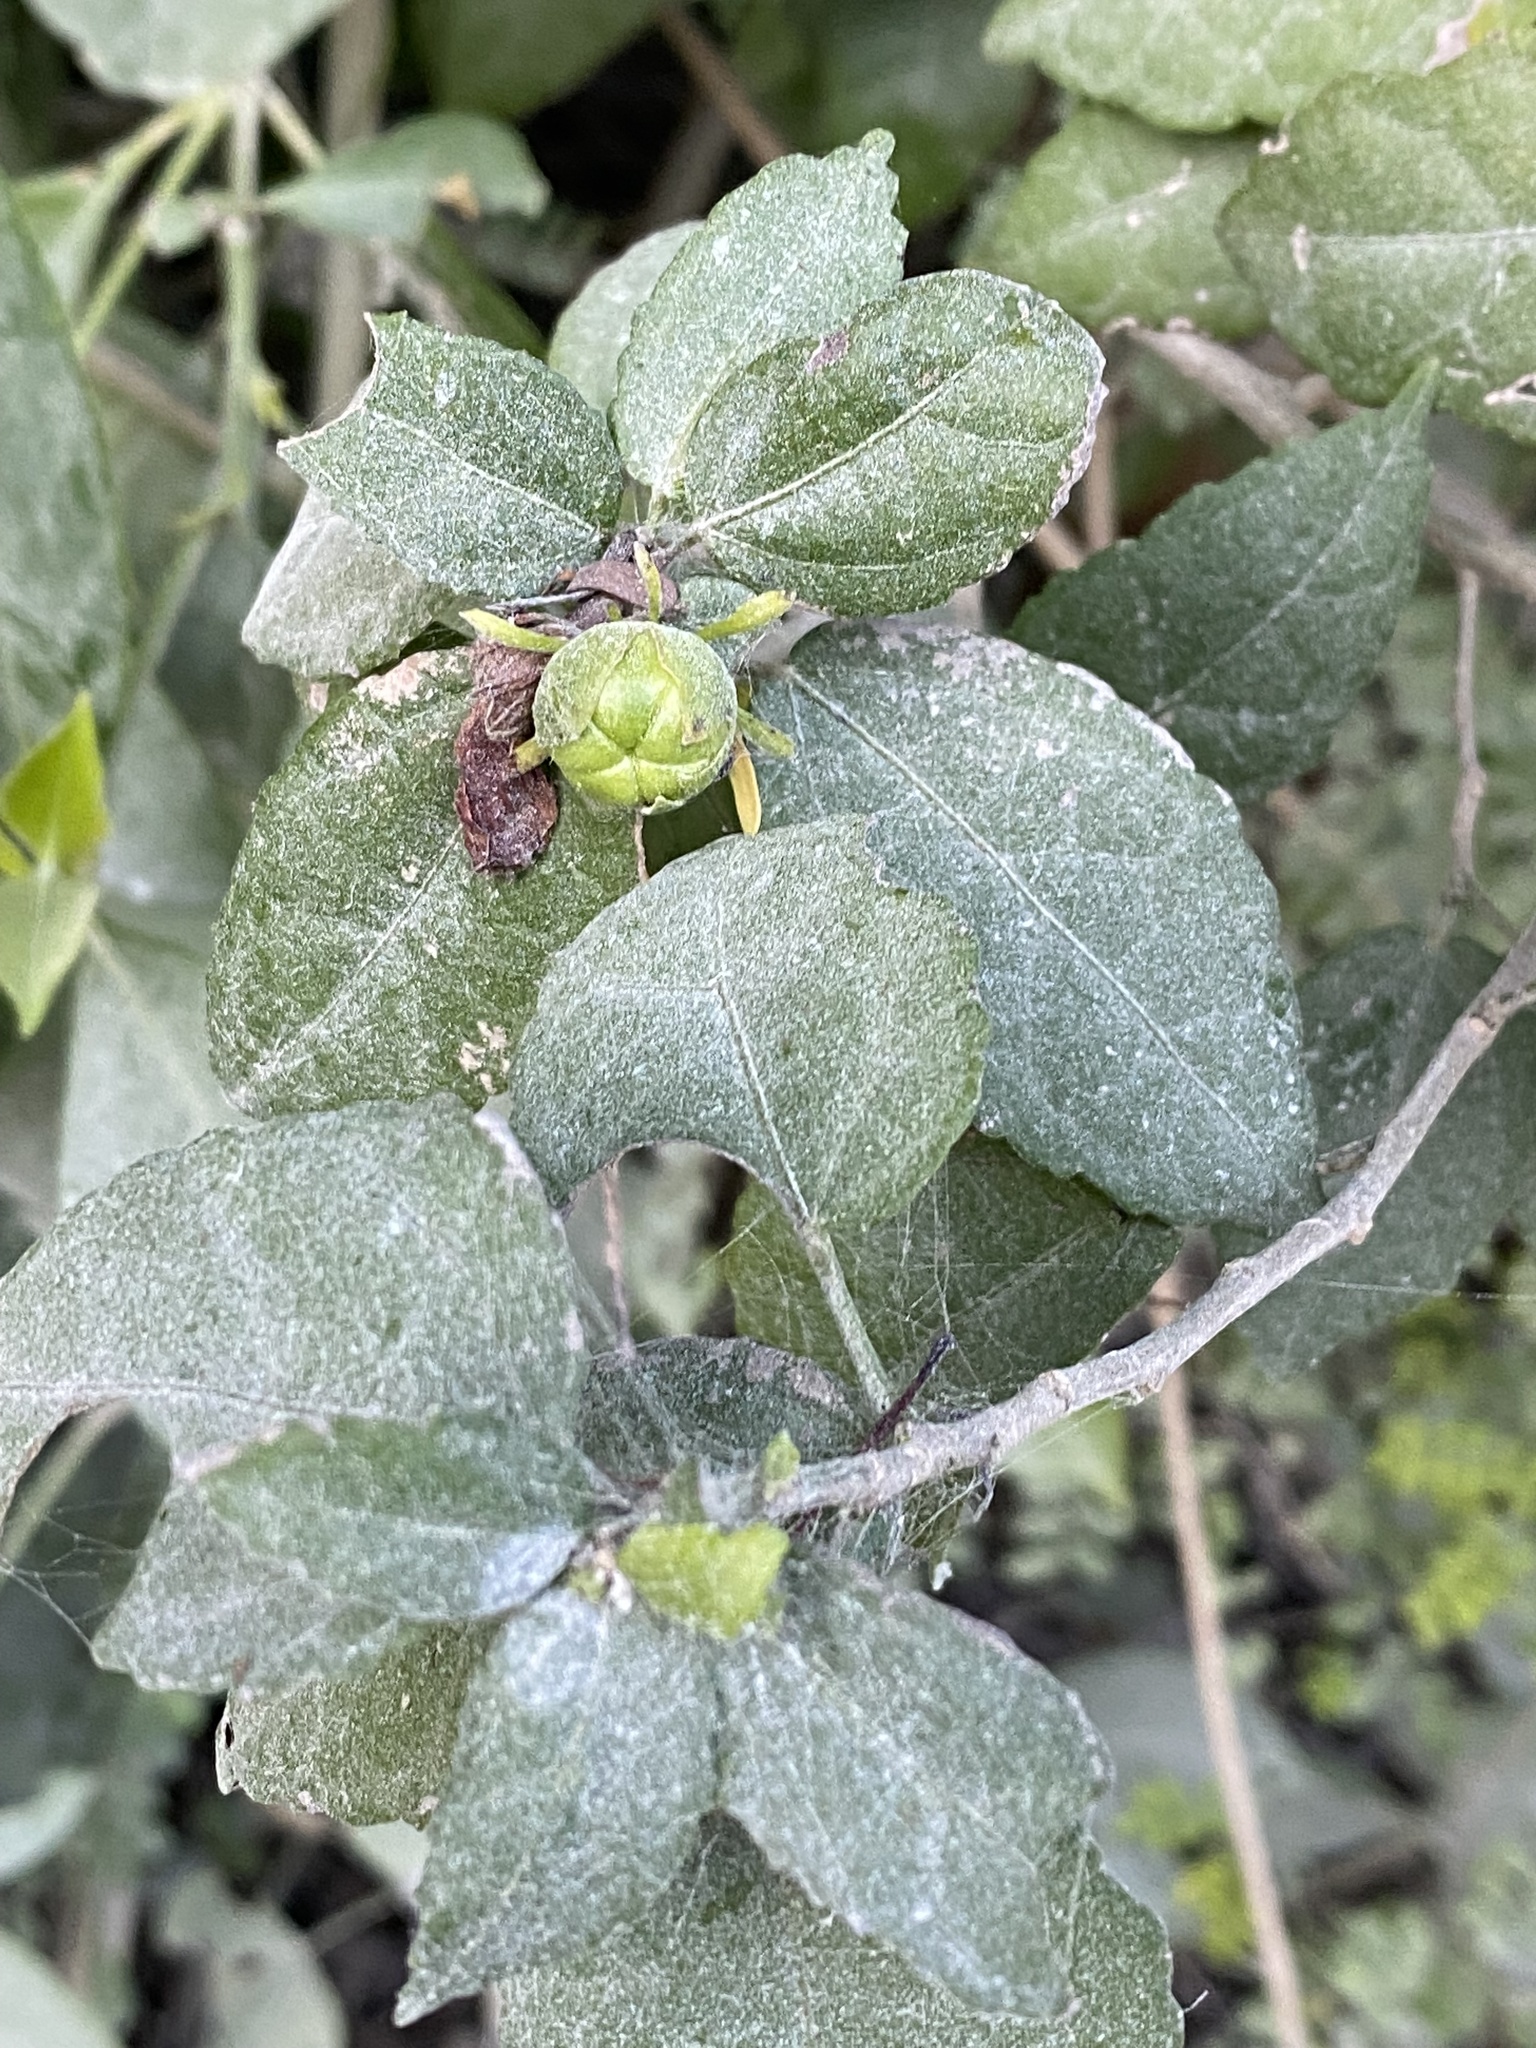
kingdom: Plantae
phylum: Tracheophyta
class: Magnoliopsida
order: Lamiales
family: Acanthaceae
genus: Bravaisia
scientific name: Bravaisia berlandieriana
